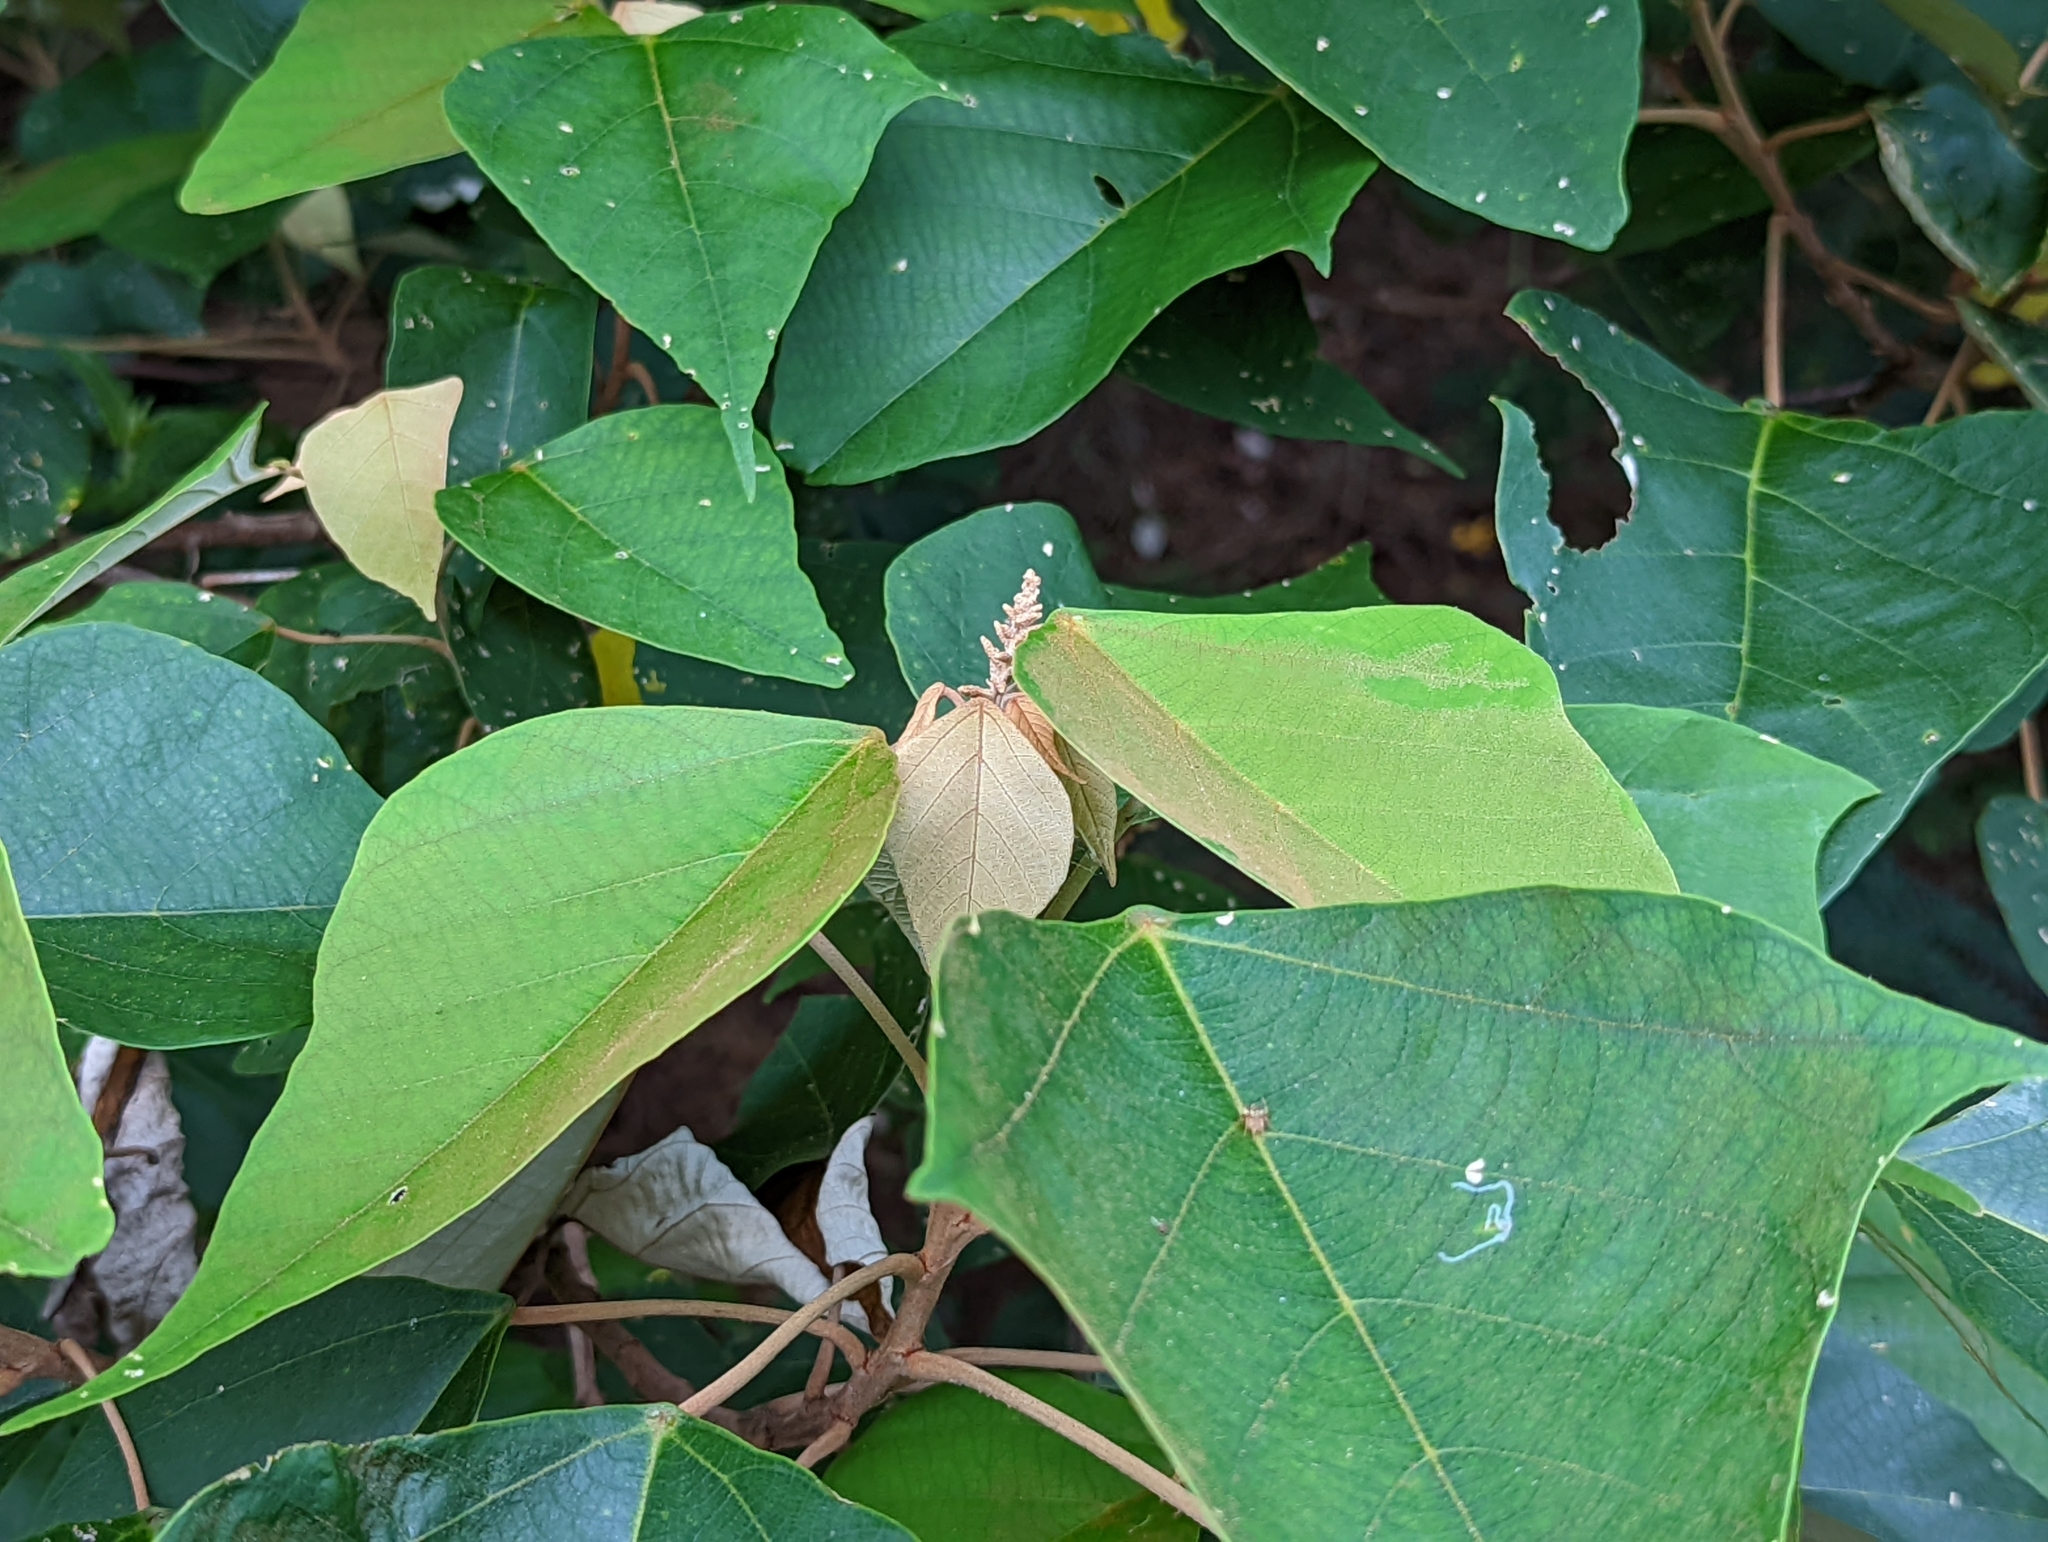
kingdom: Plantae
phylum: Tracheophyta
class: Magnoliopsida
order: Malpighiales
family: Euphorbiaceae
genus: Mallotus
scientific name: Mallotus paniculatus
